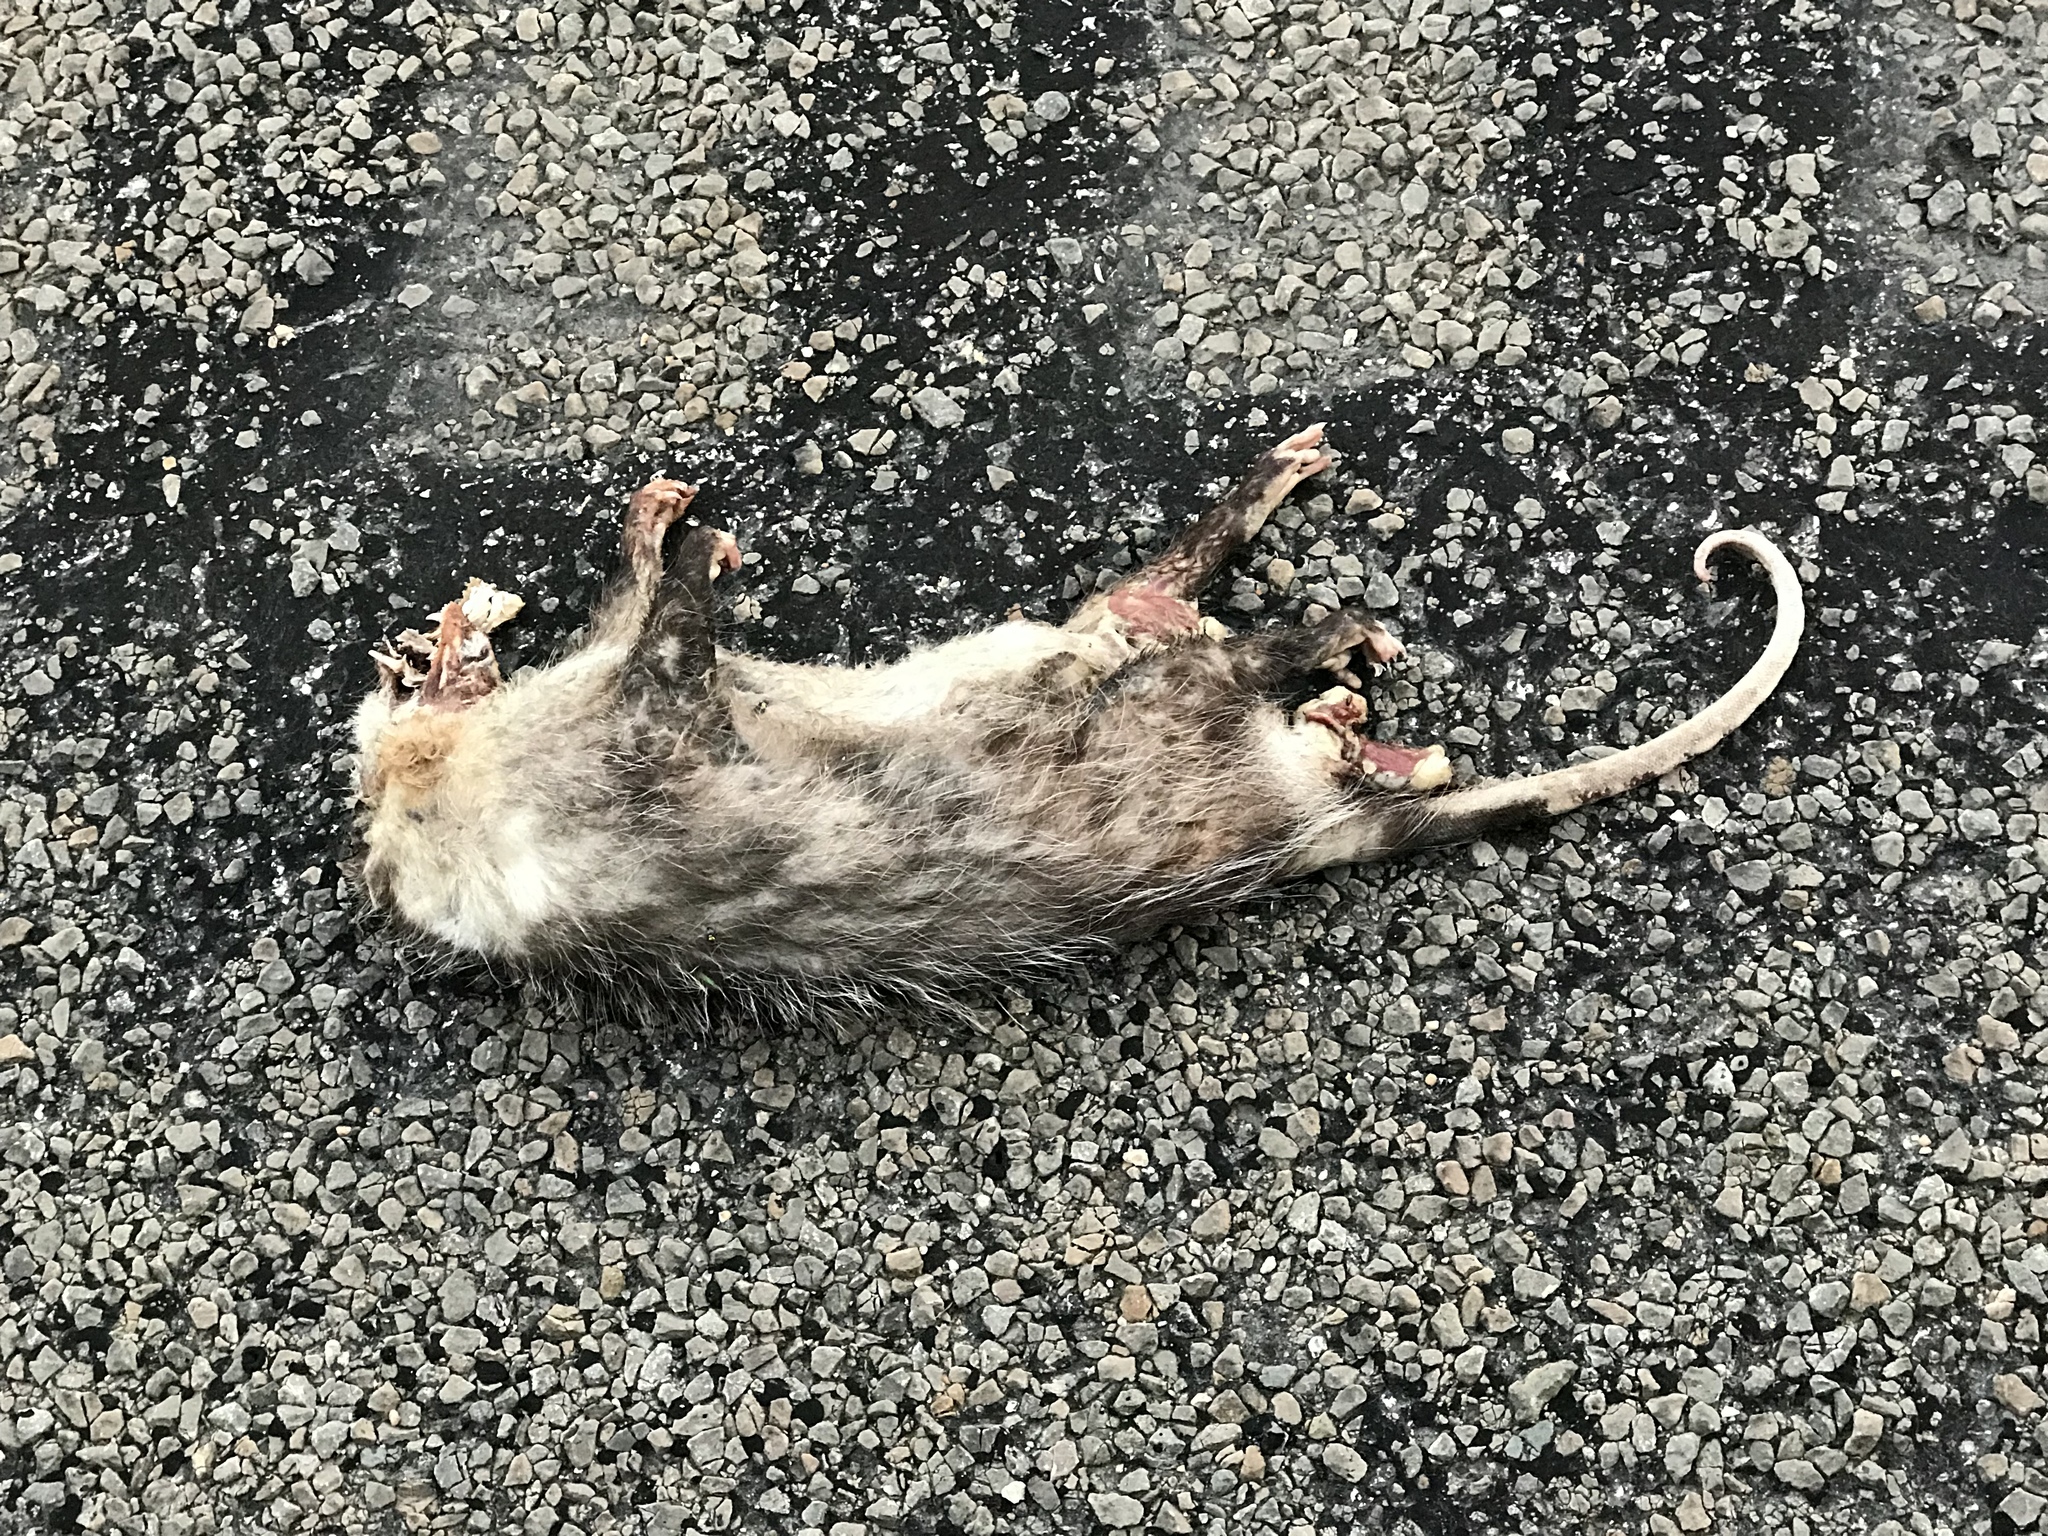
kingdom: Animalia
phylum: Chordata
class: Mammalia
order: Didelphimorphia
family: Didelphidae
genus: Didelphis
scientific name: Didelphis virginiana
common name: Virginia opossum
